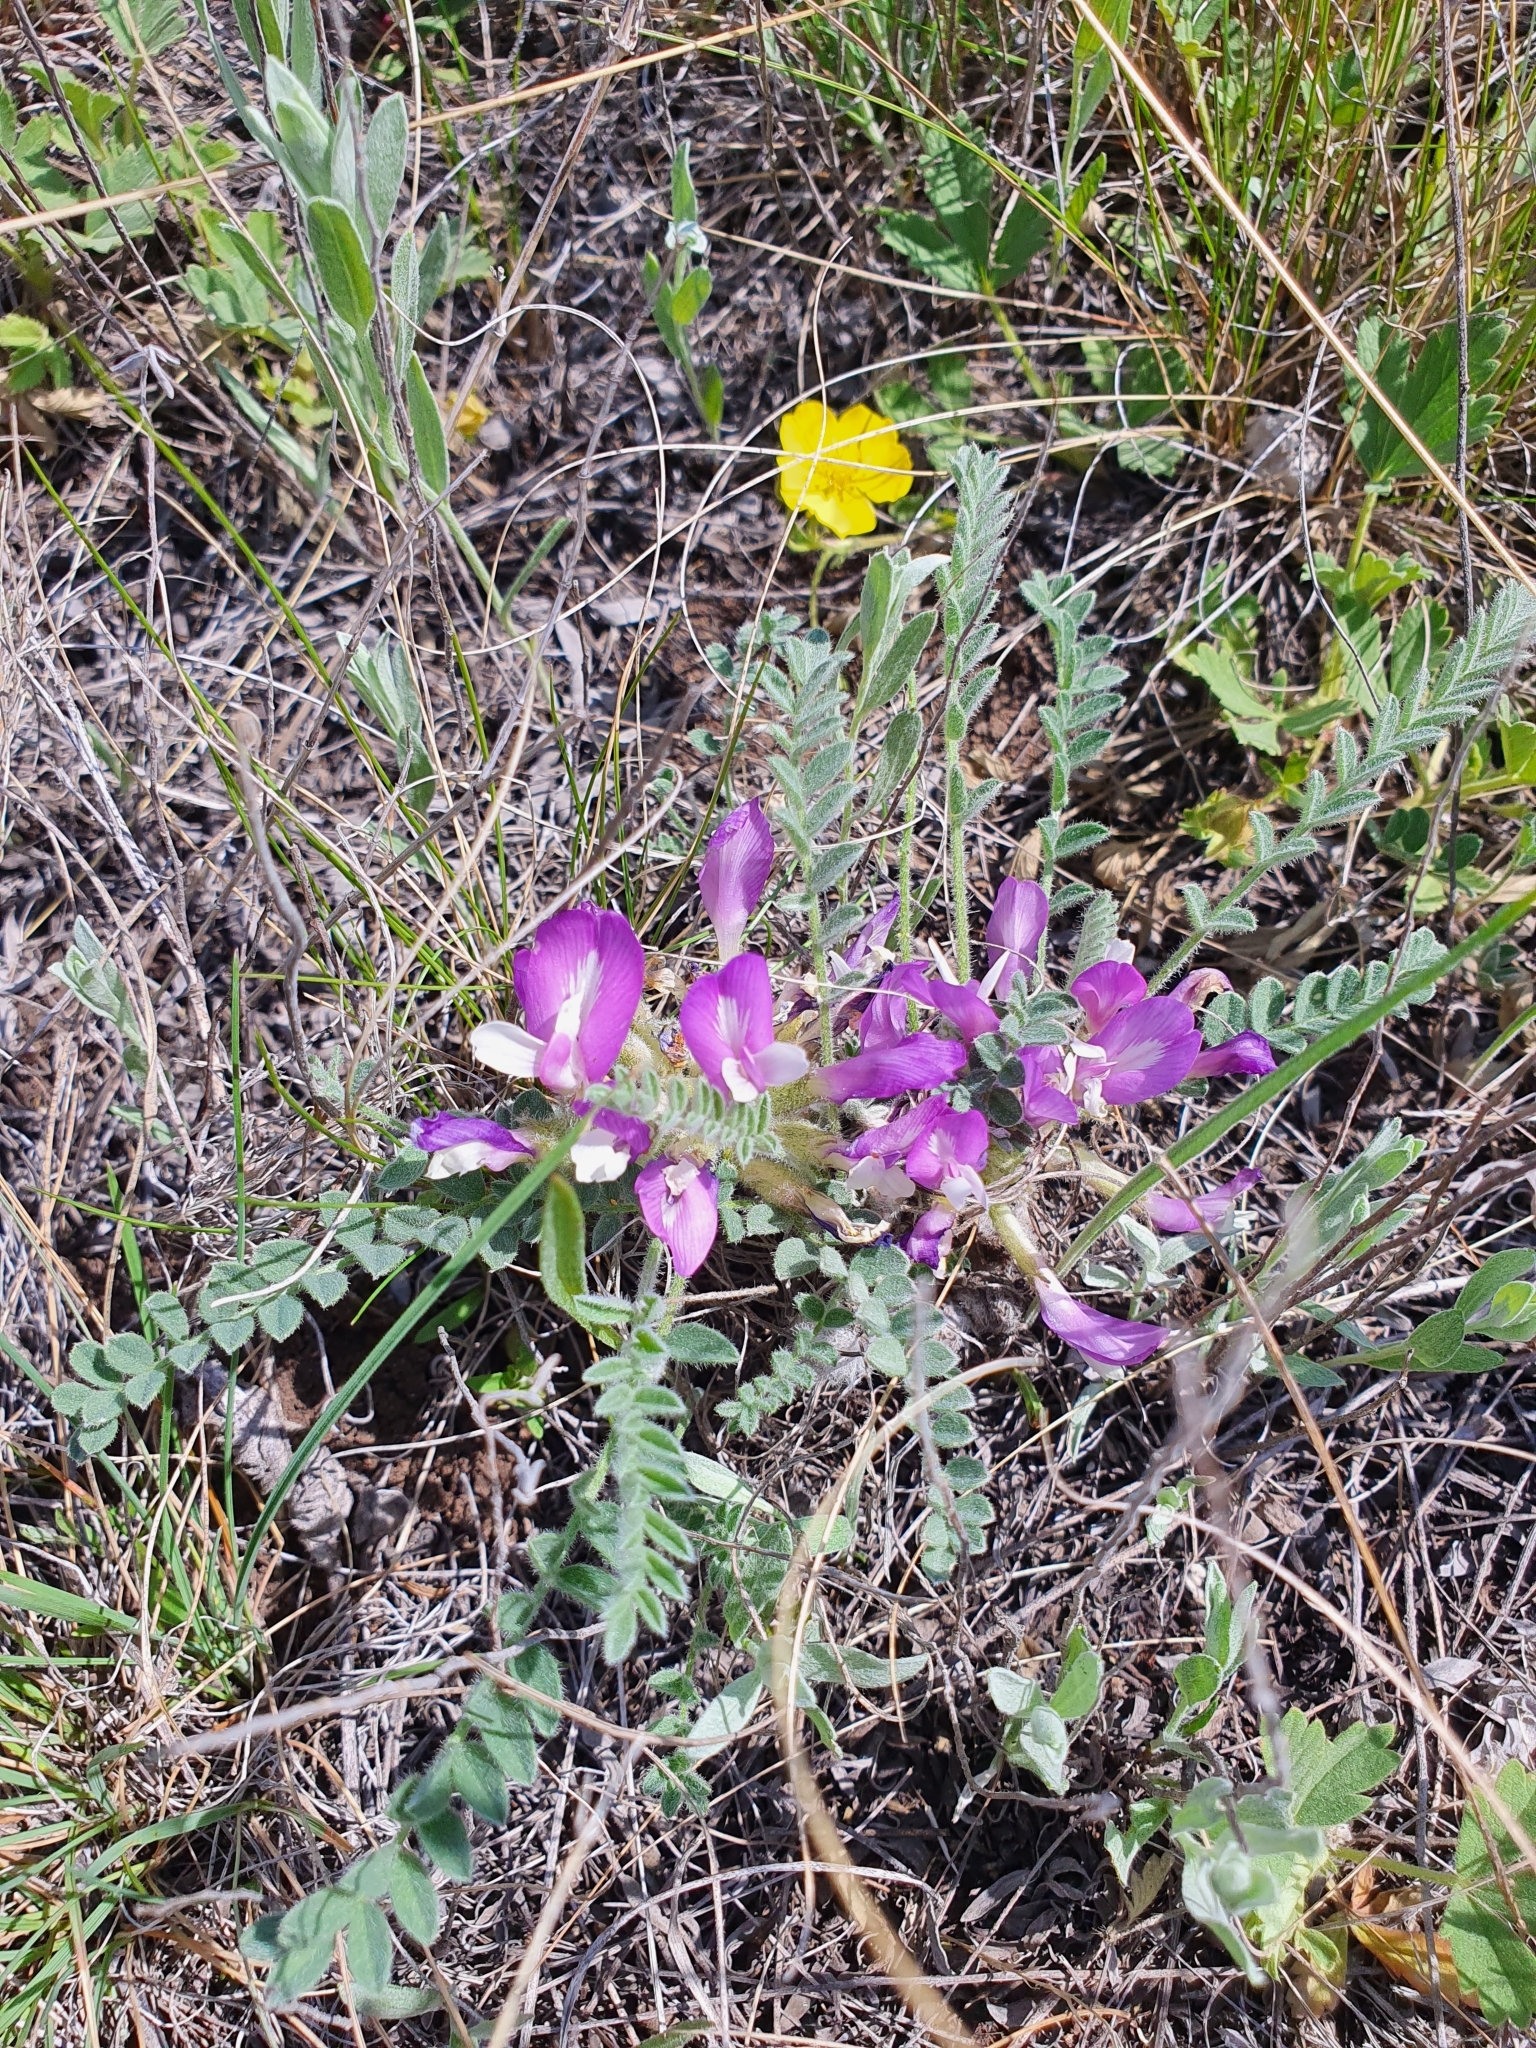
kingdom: Plantae
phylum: Tracheophyta
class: Magnoliopsida
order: Fabales
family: Fabaceae
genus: Astragalus
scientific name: Astragalus testiculatus
